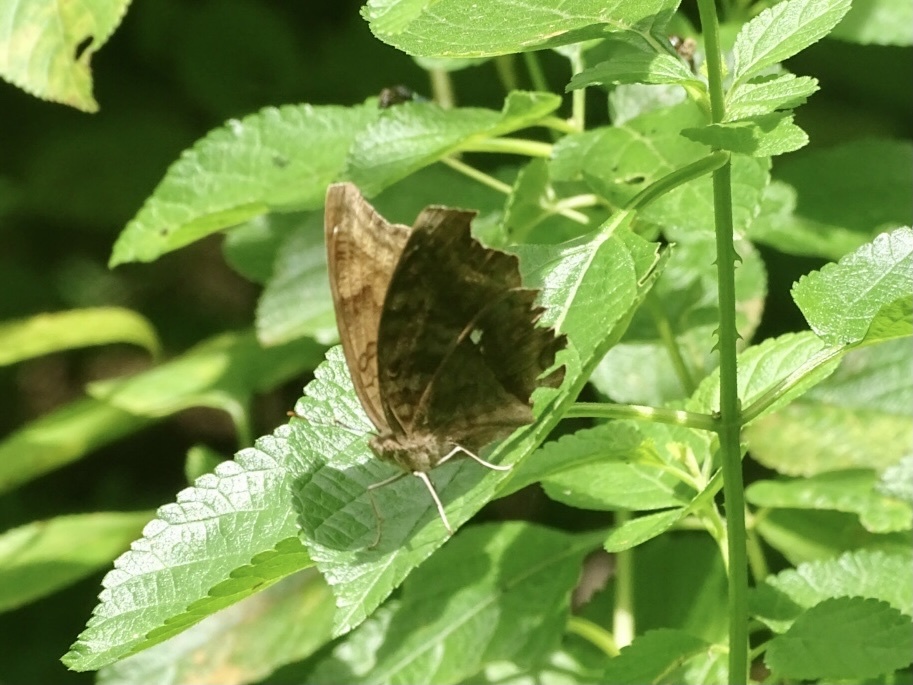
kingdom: Animalia
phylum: Arthropoda
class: Insecta
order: Lepidoptera
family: Nymphalidae
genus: Junonia
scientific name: Junonia iphita
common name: Chocolate pansy
